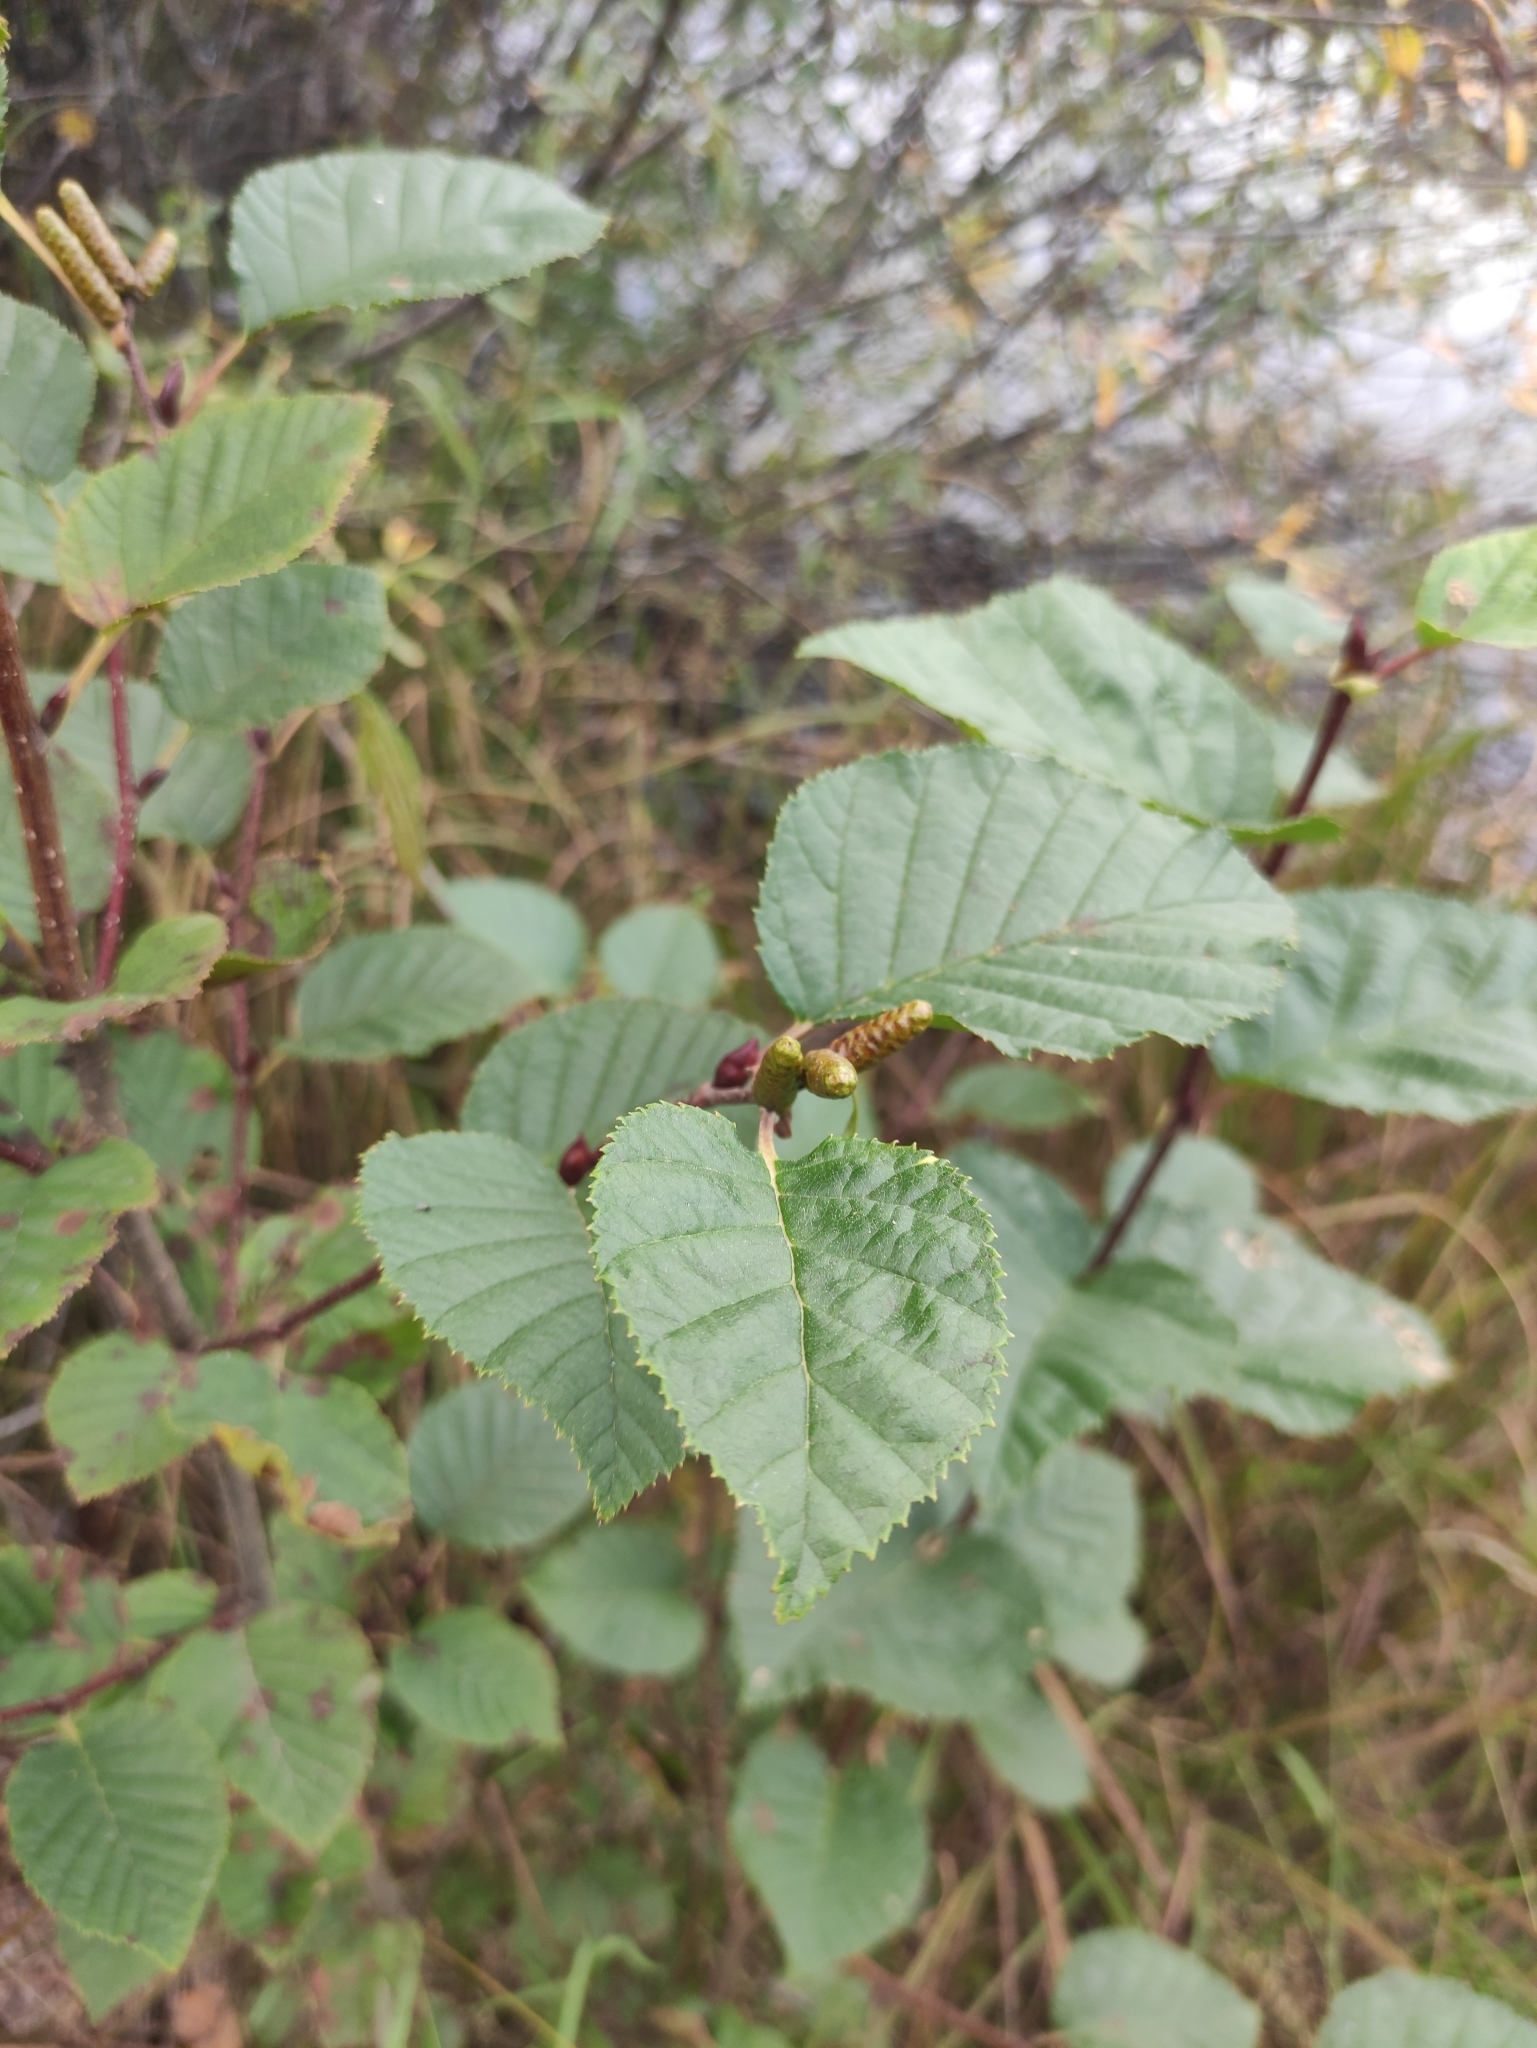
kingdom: Plantae
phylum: Tracheophyta
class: Magnoliopsida
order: Fagales
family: Betulaceae
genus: Alnus
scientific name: Alnus alnobetula
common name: Green alder
